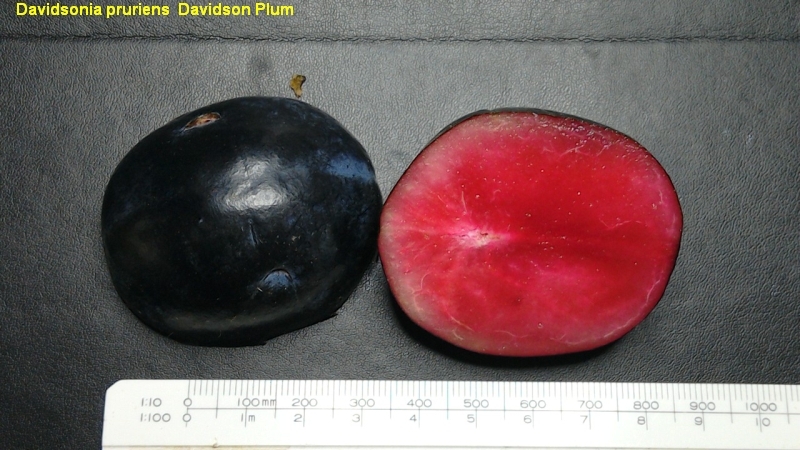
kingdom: Plantae
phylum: Tracheophyta
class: Magnoliopsida
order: Oxalidales
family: Cunoniaceae
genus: Davidsonia
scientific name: Davidsonia pruriens
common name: Do-rog
